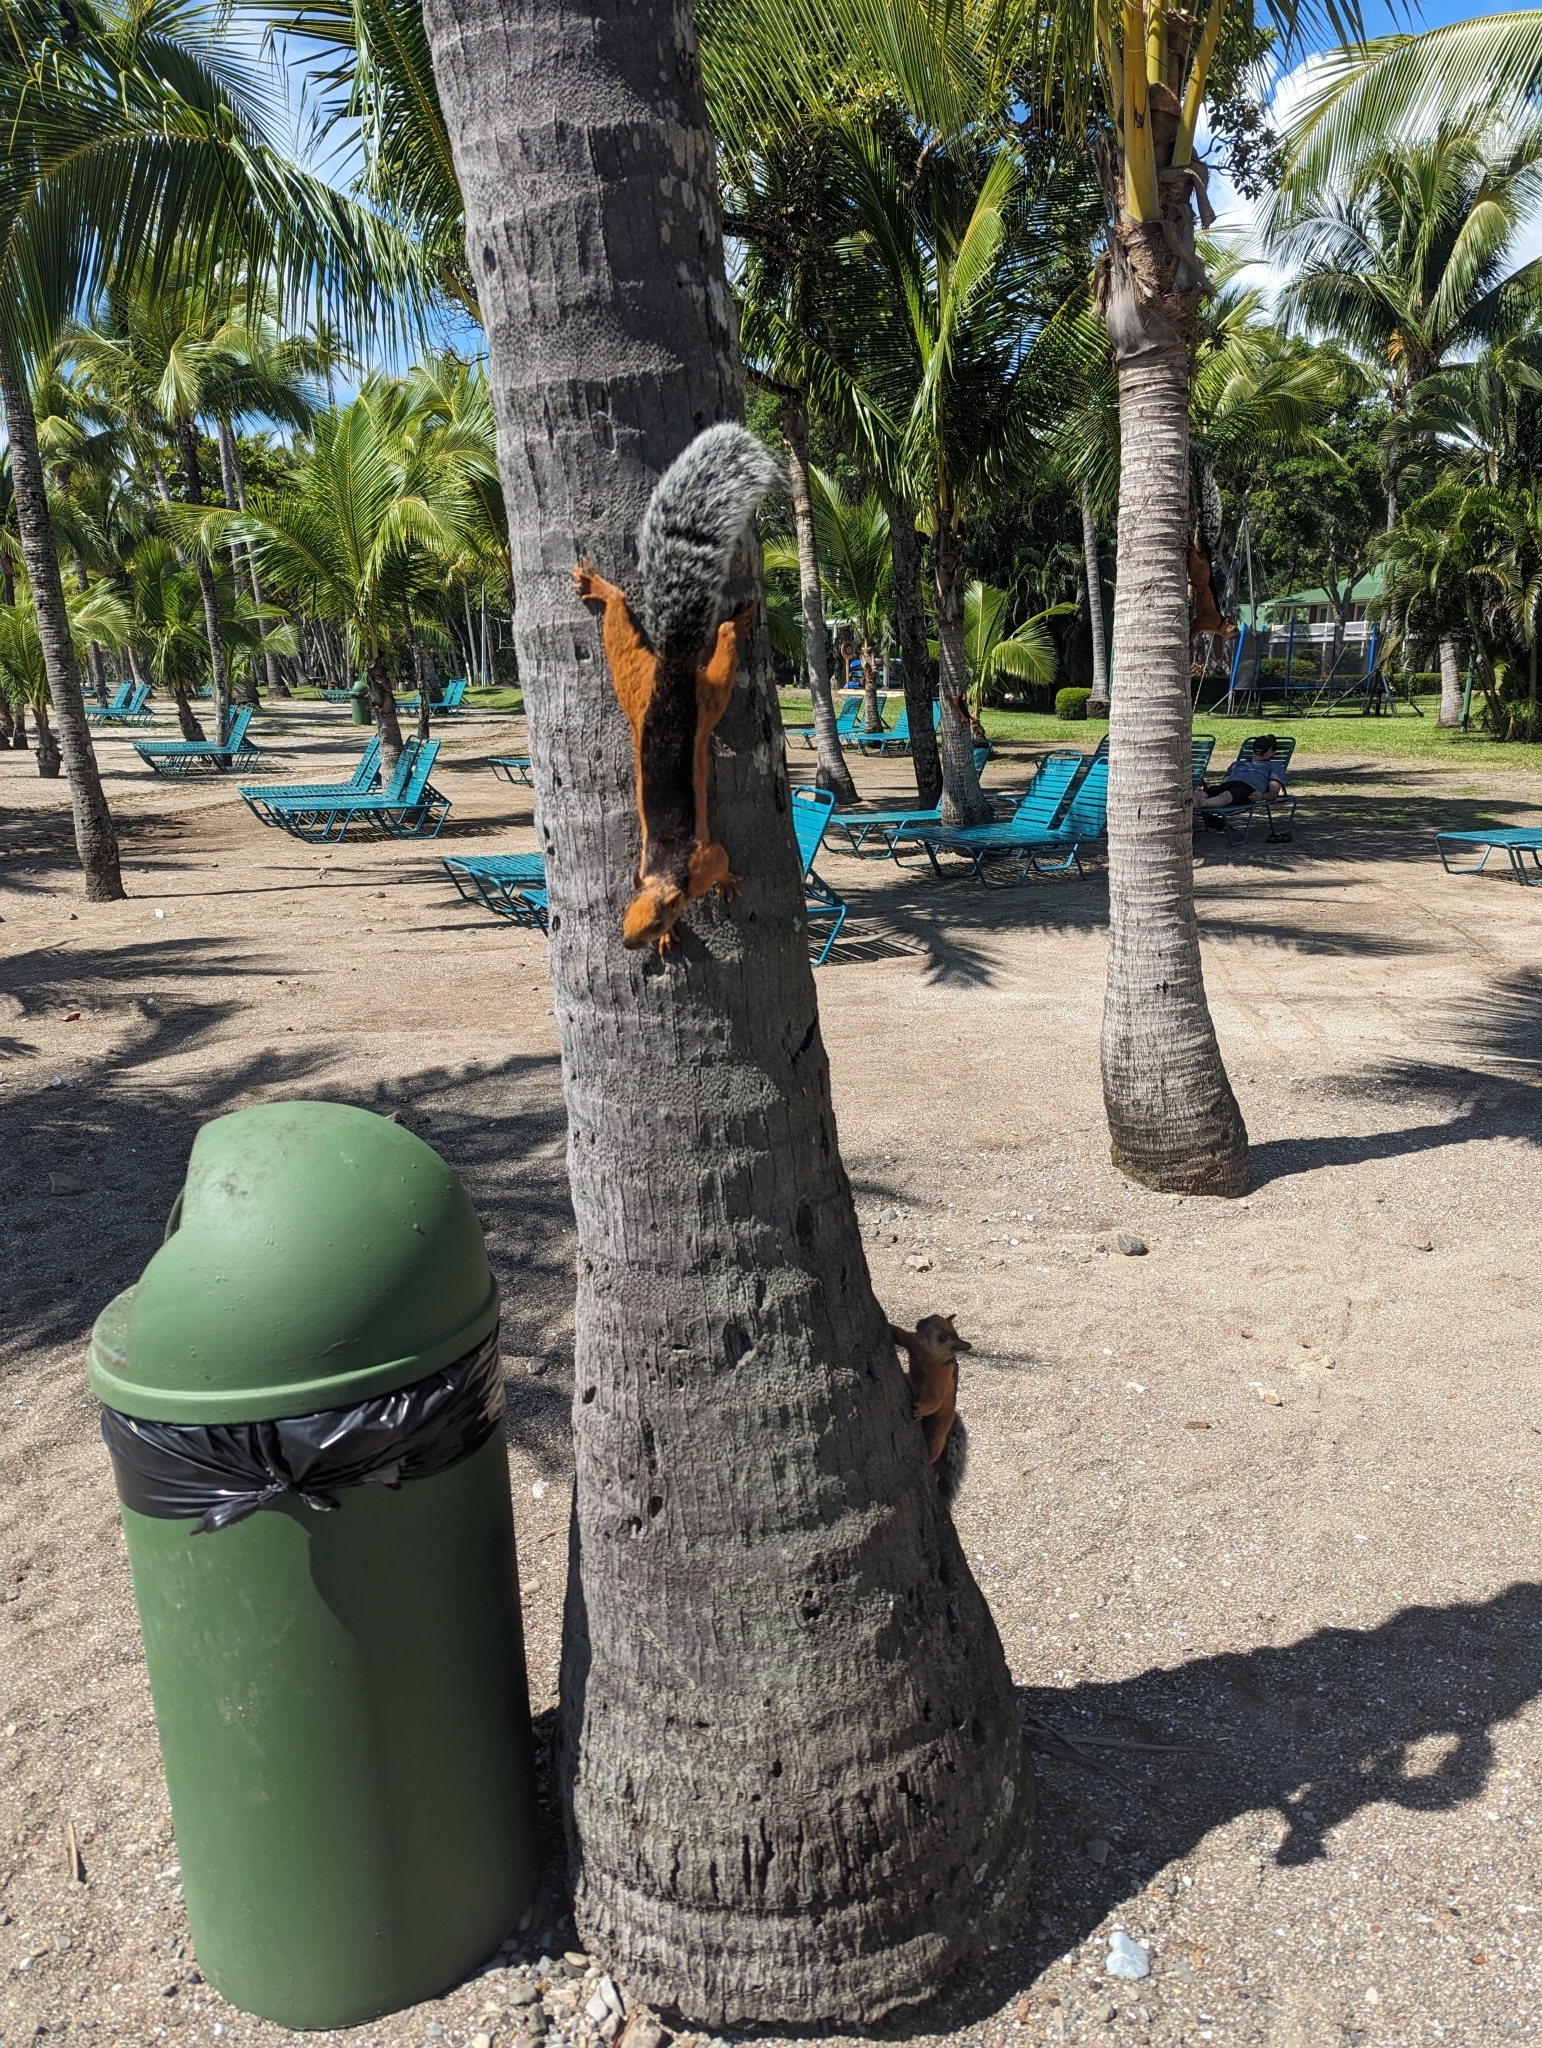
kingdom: Animalia
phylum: Chordata
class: Mammalia
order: Rodentia
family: Sciuridae
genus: Sciurus
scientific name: Sciurus variegatoides
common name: Variegated squirrel
